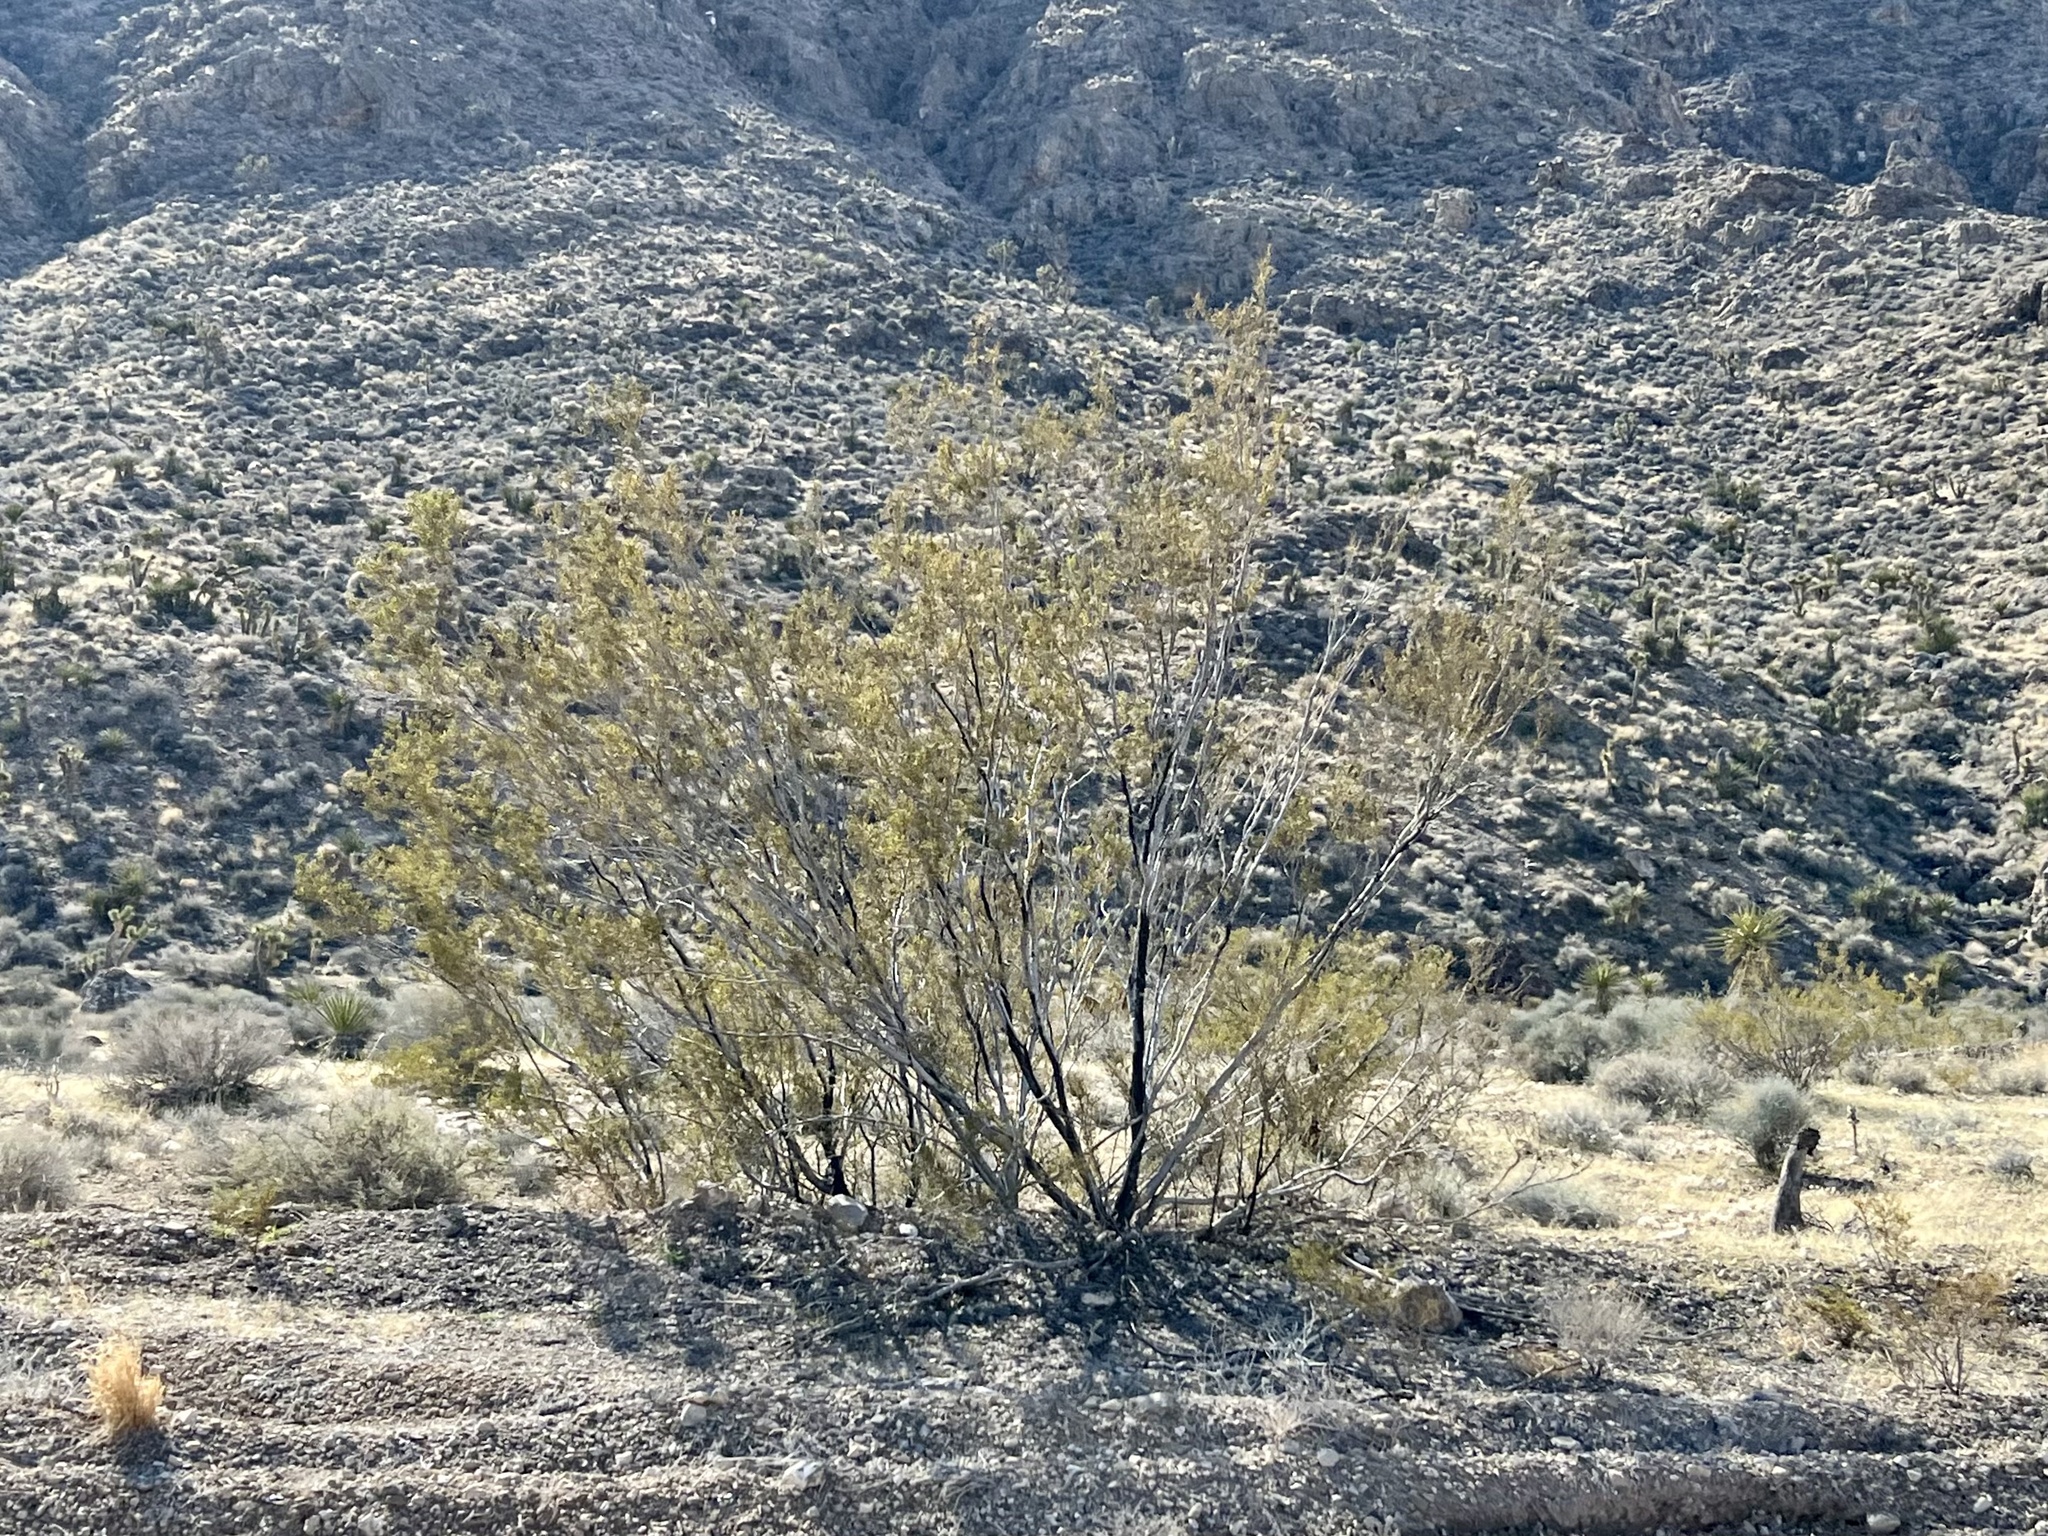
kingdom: Plantae
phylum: Tracheophyta
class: Magnoliopsida
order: Zygophyllales
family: Zygophyllaceae
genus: Larrea
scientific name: Larrea tridentata
